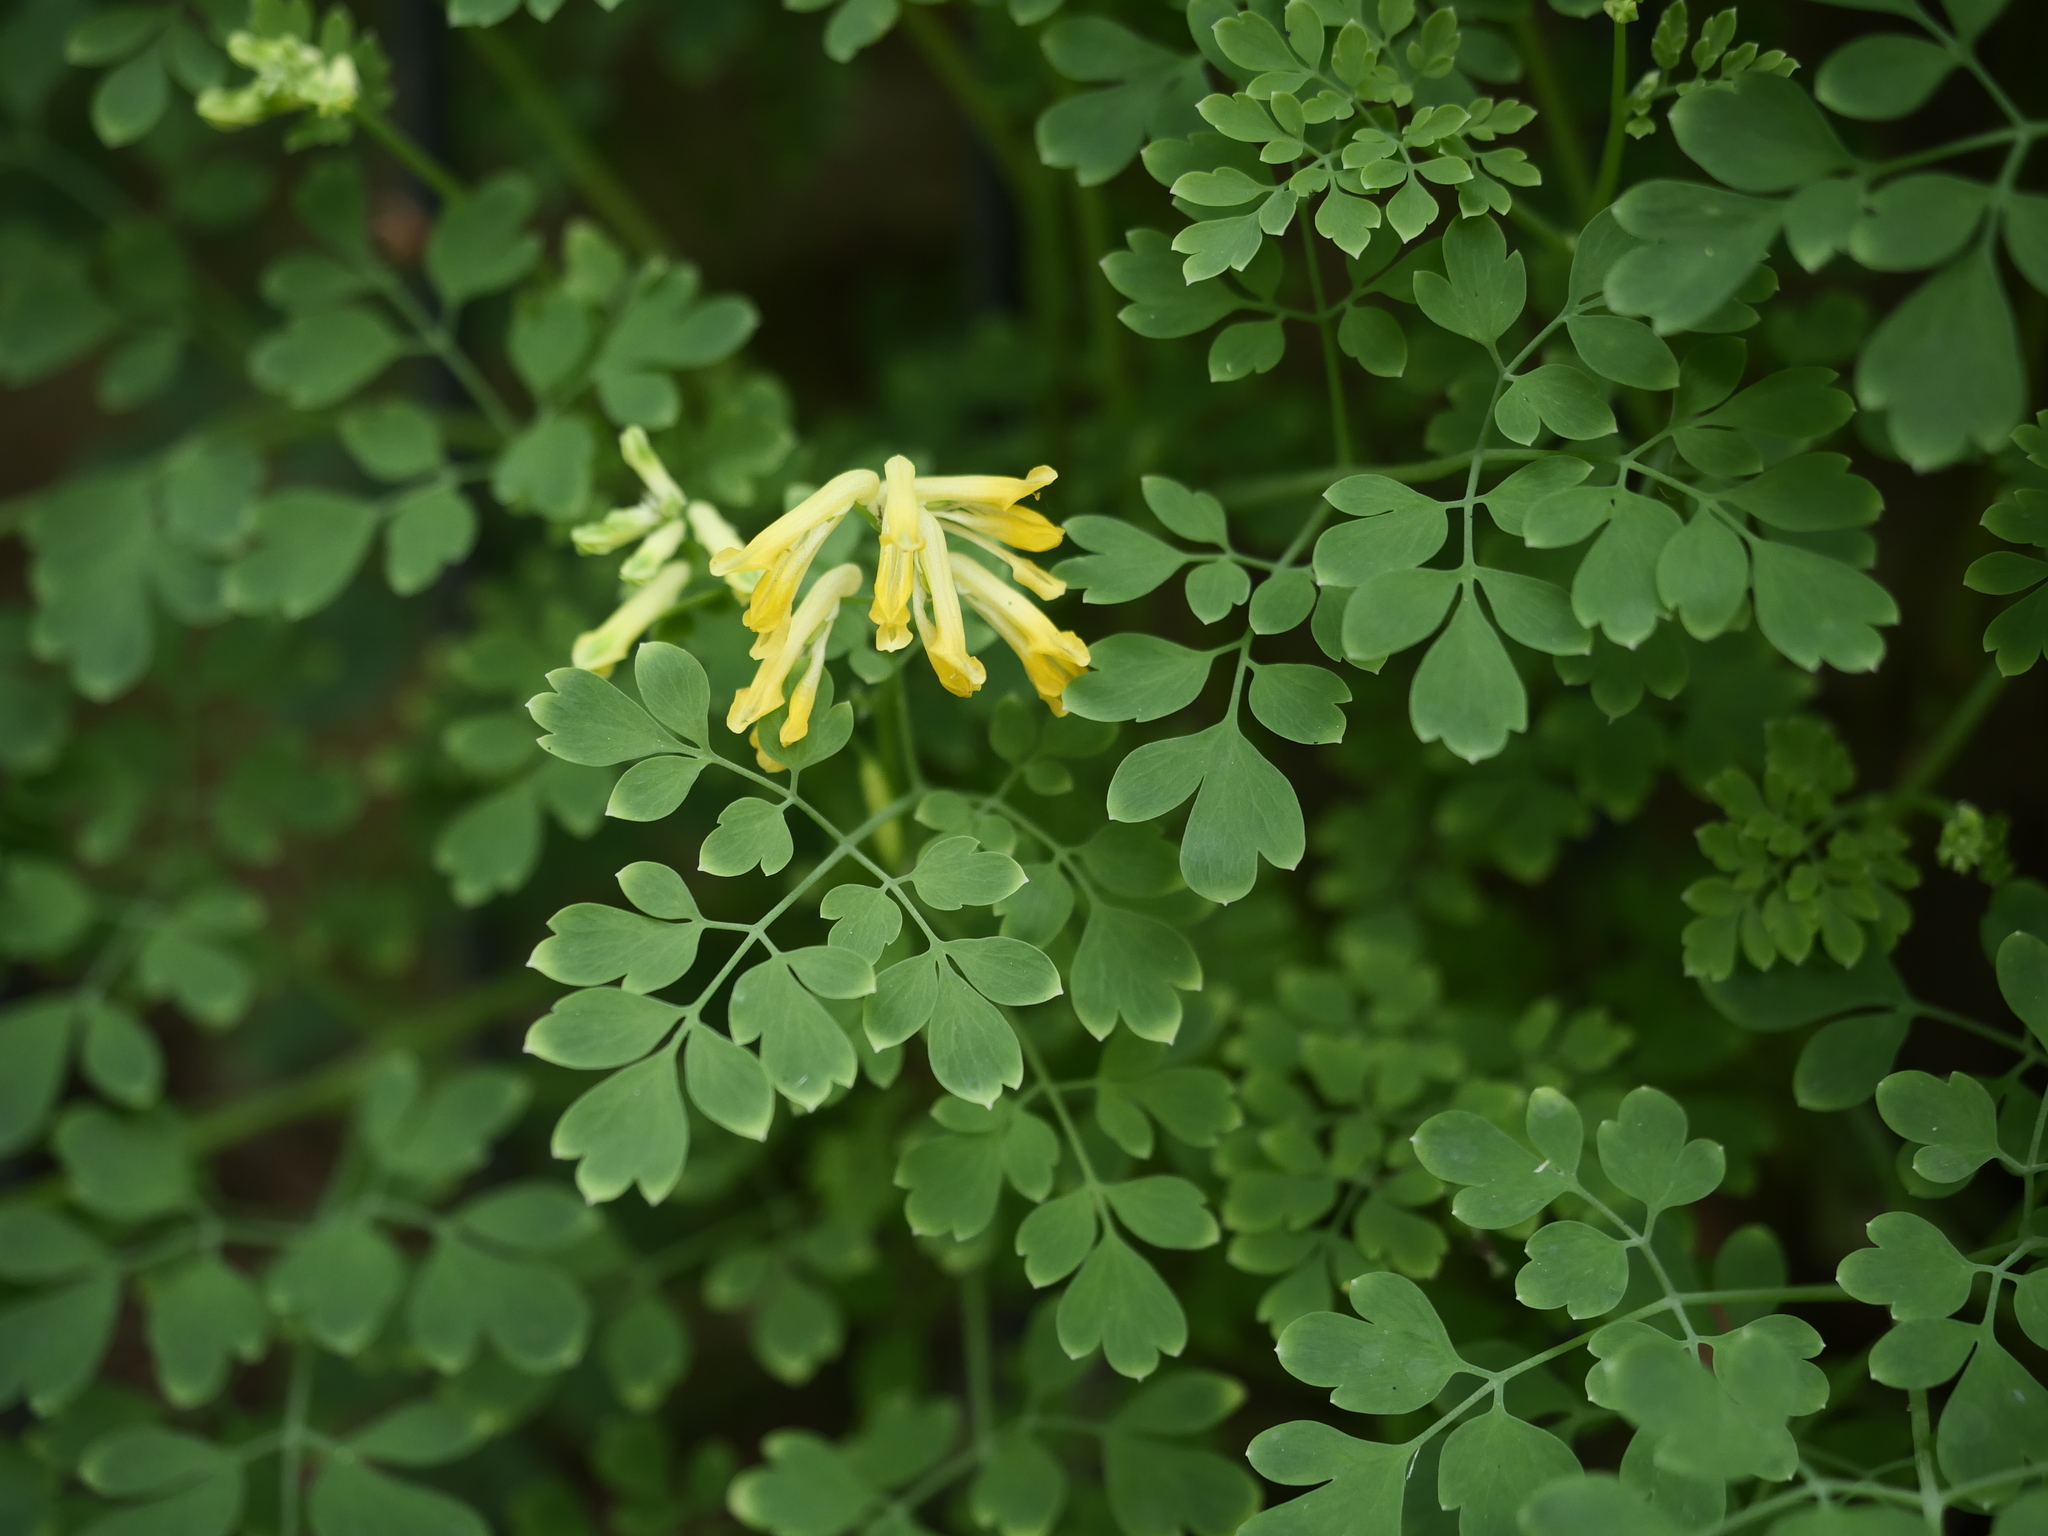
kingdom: Plantae
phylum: Tracheophyta
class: Magnoliopsida
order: Ranunculales
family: Papaveraceae
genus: Pseudofumaria
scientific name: Pseudofumaria lutea
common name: Yellow corydalis
